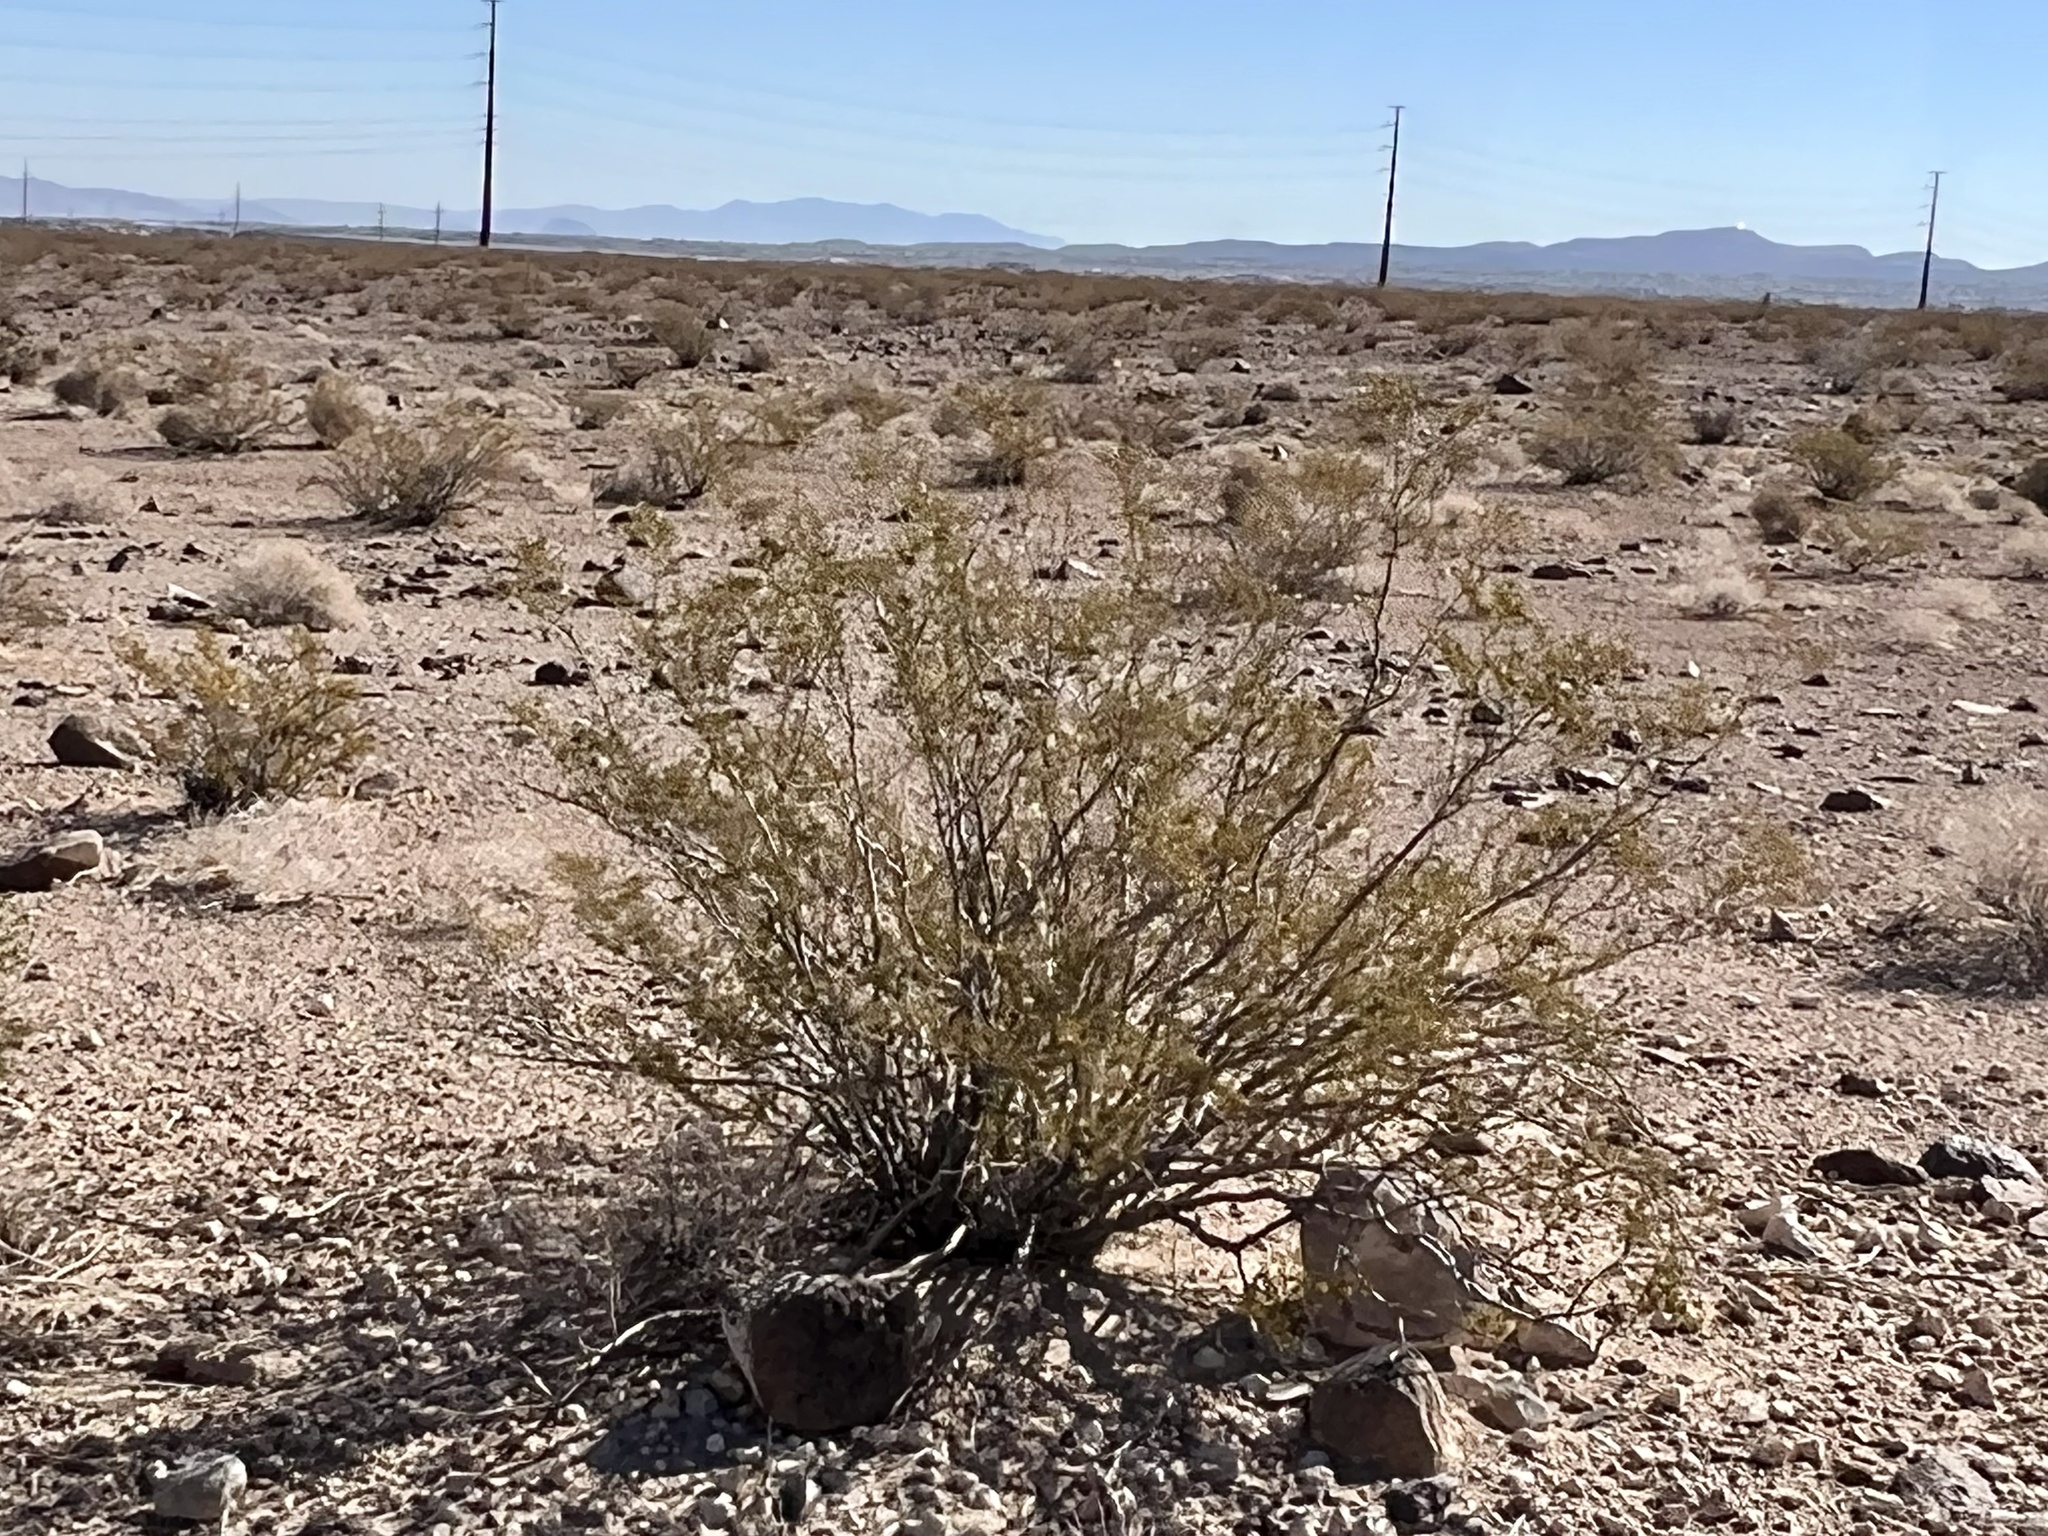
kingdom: Plantae
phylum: Tracheophyta
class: Magnoliopsida
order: Zygophyllales
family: Zygophyllaceae
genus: Larrea
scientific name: Larrea tridentata
